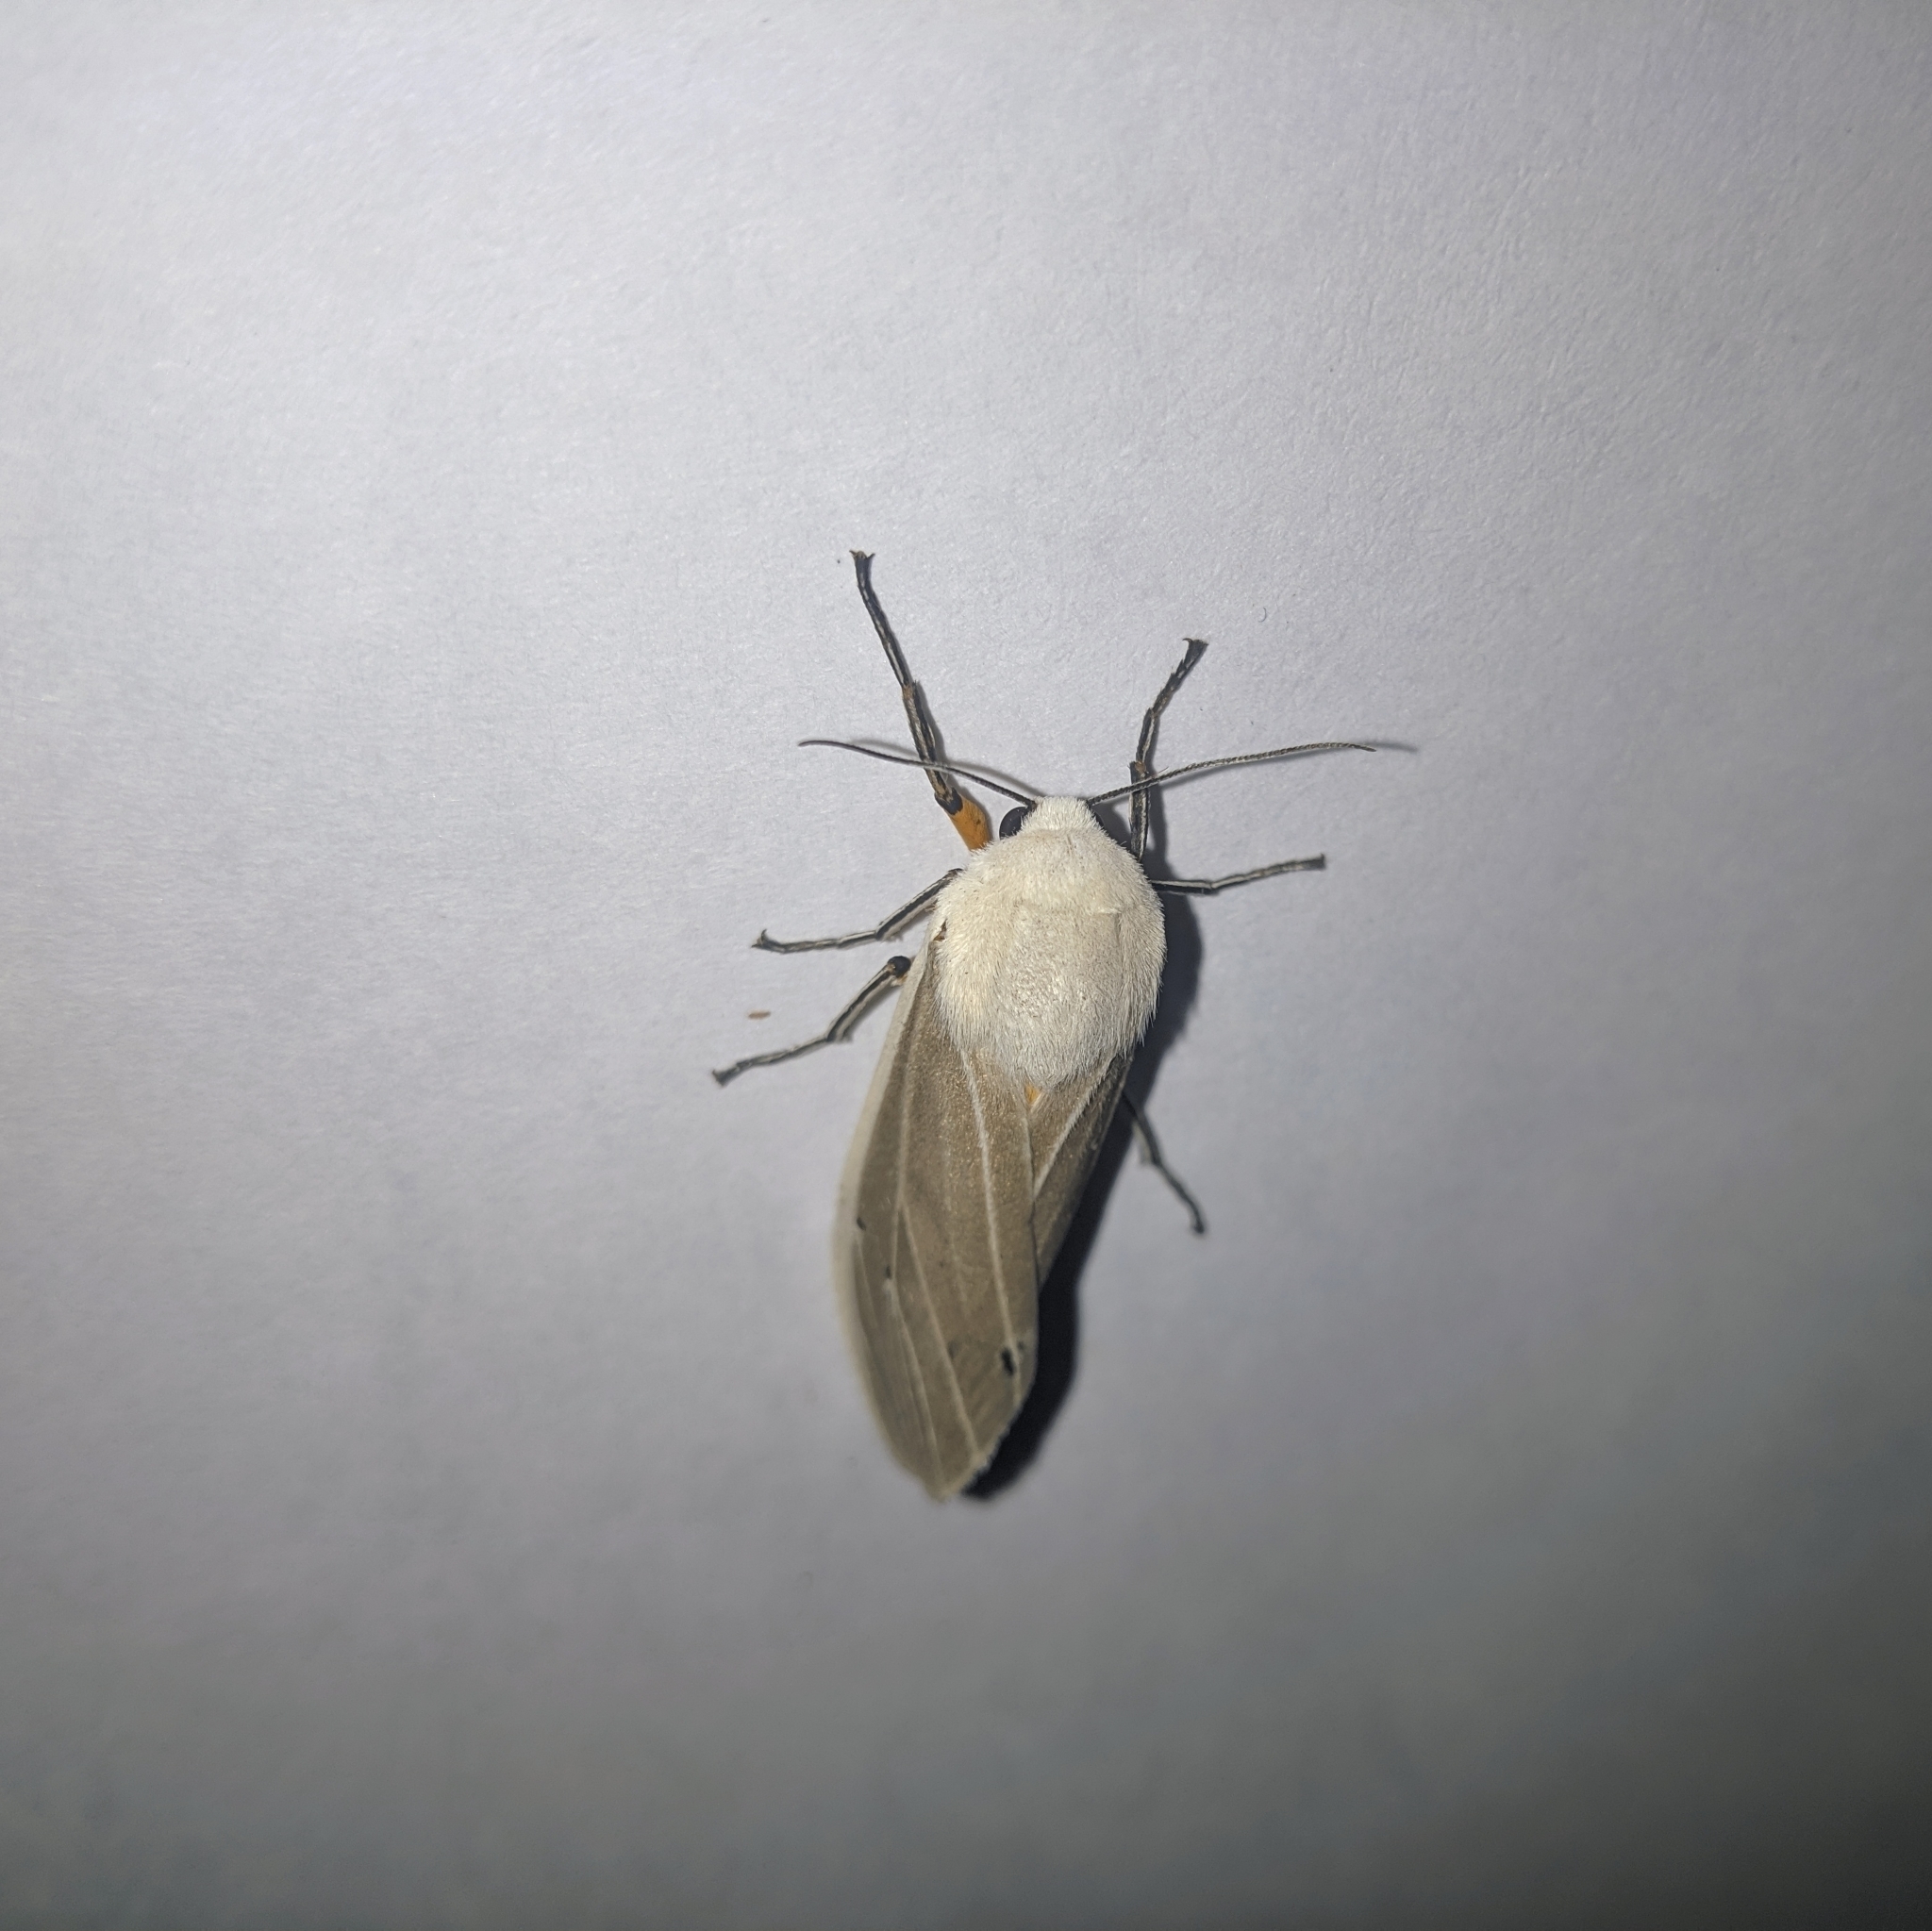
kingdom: Animalia
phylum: Arthropoda
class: Insecta
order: Lepidoptera
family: Erebidae
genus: Creatonotos
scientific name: Creatonotos transiens
